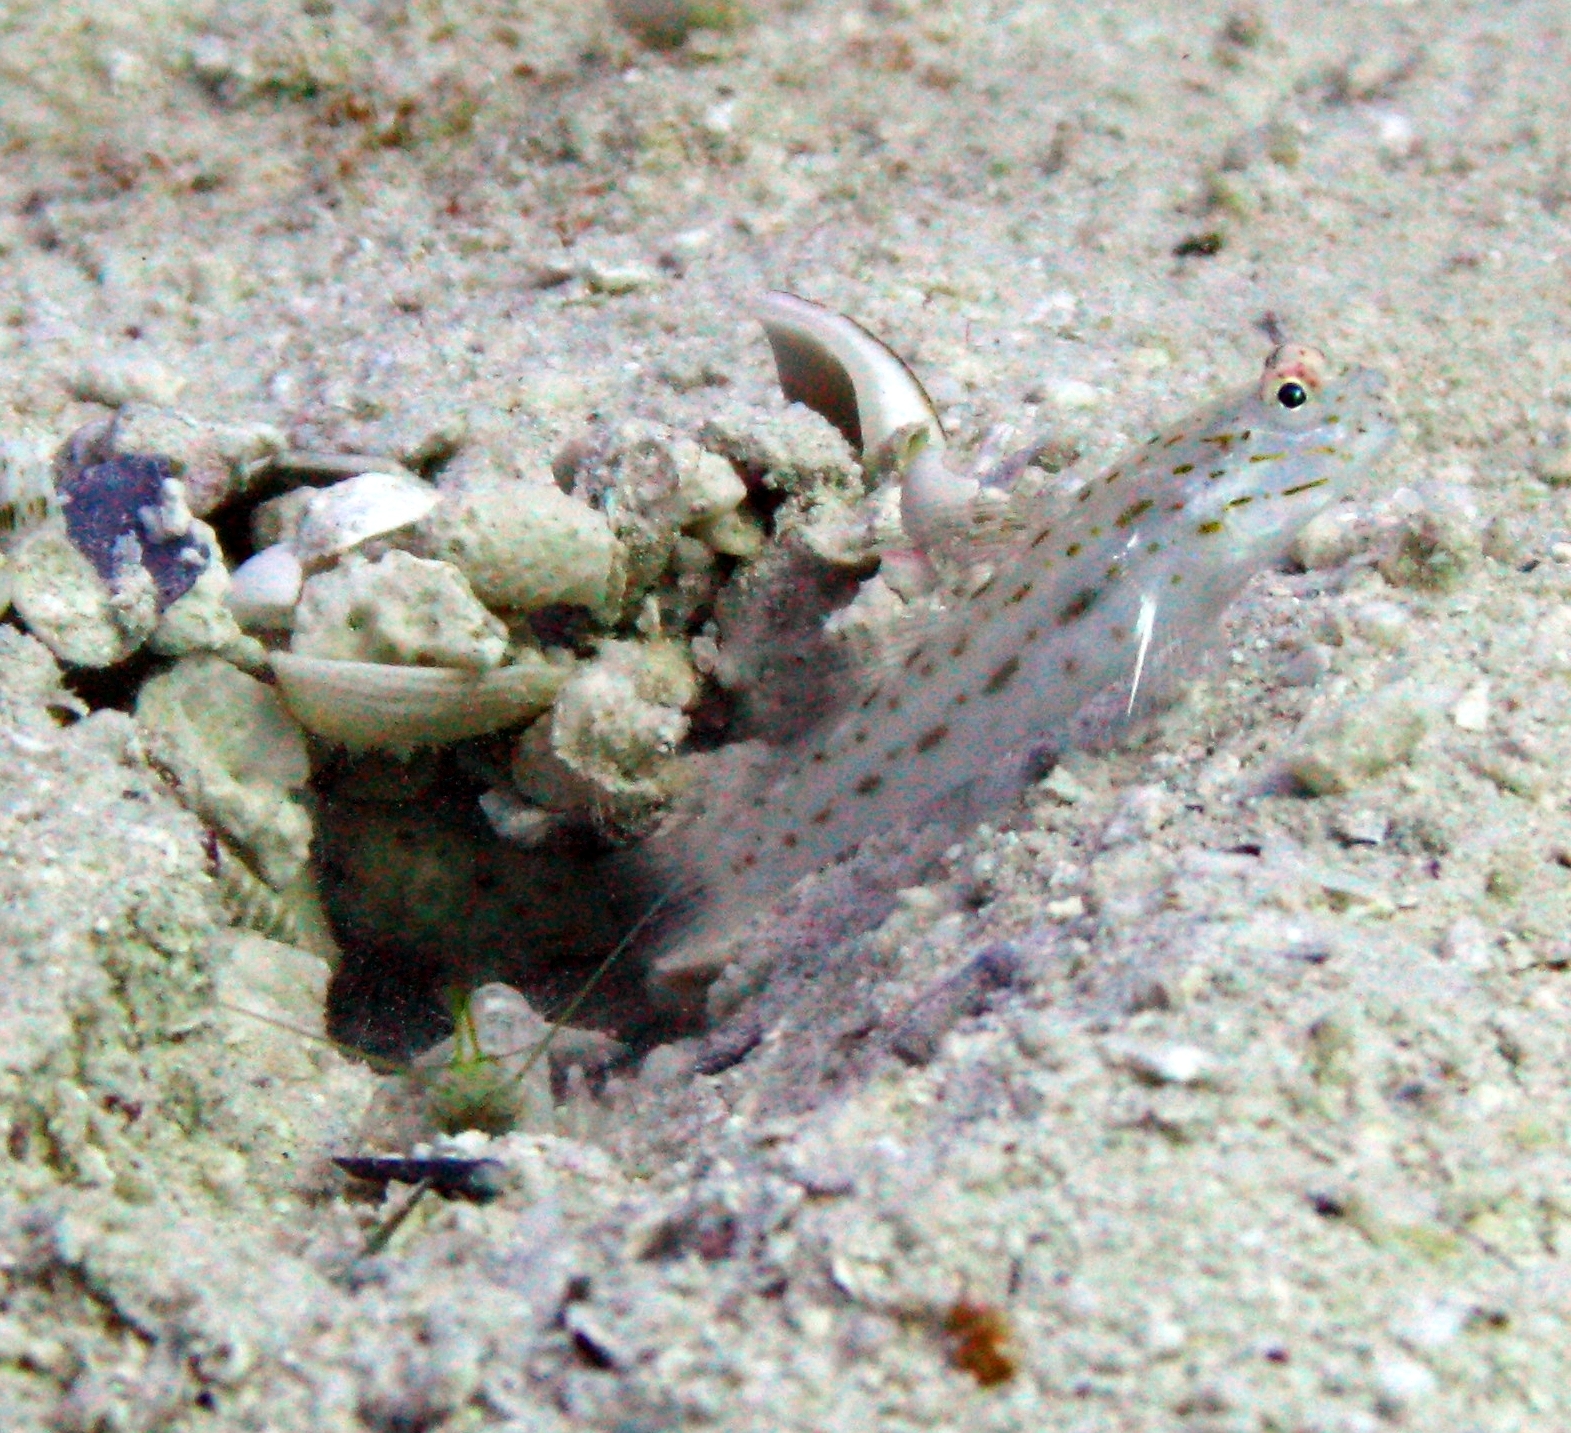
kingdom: Animalia
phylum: Chordata
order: Perciformes
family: Gobiidae
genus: Ctenogobiops
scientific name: Ctenogobiops crocineus
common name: Silverspot shrimpgoby
